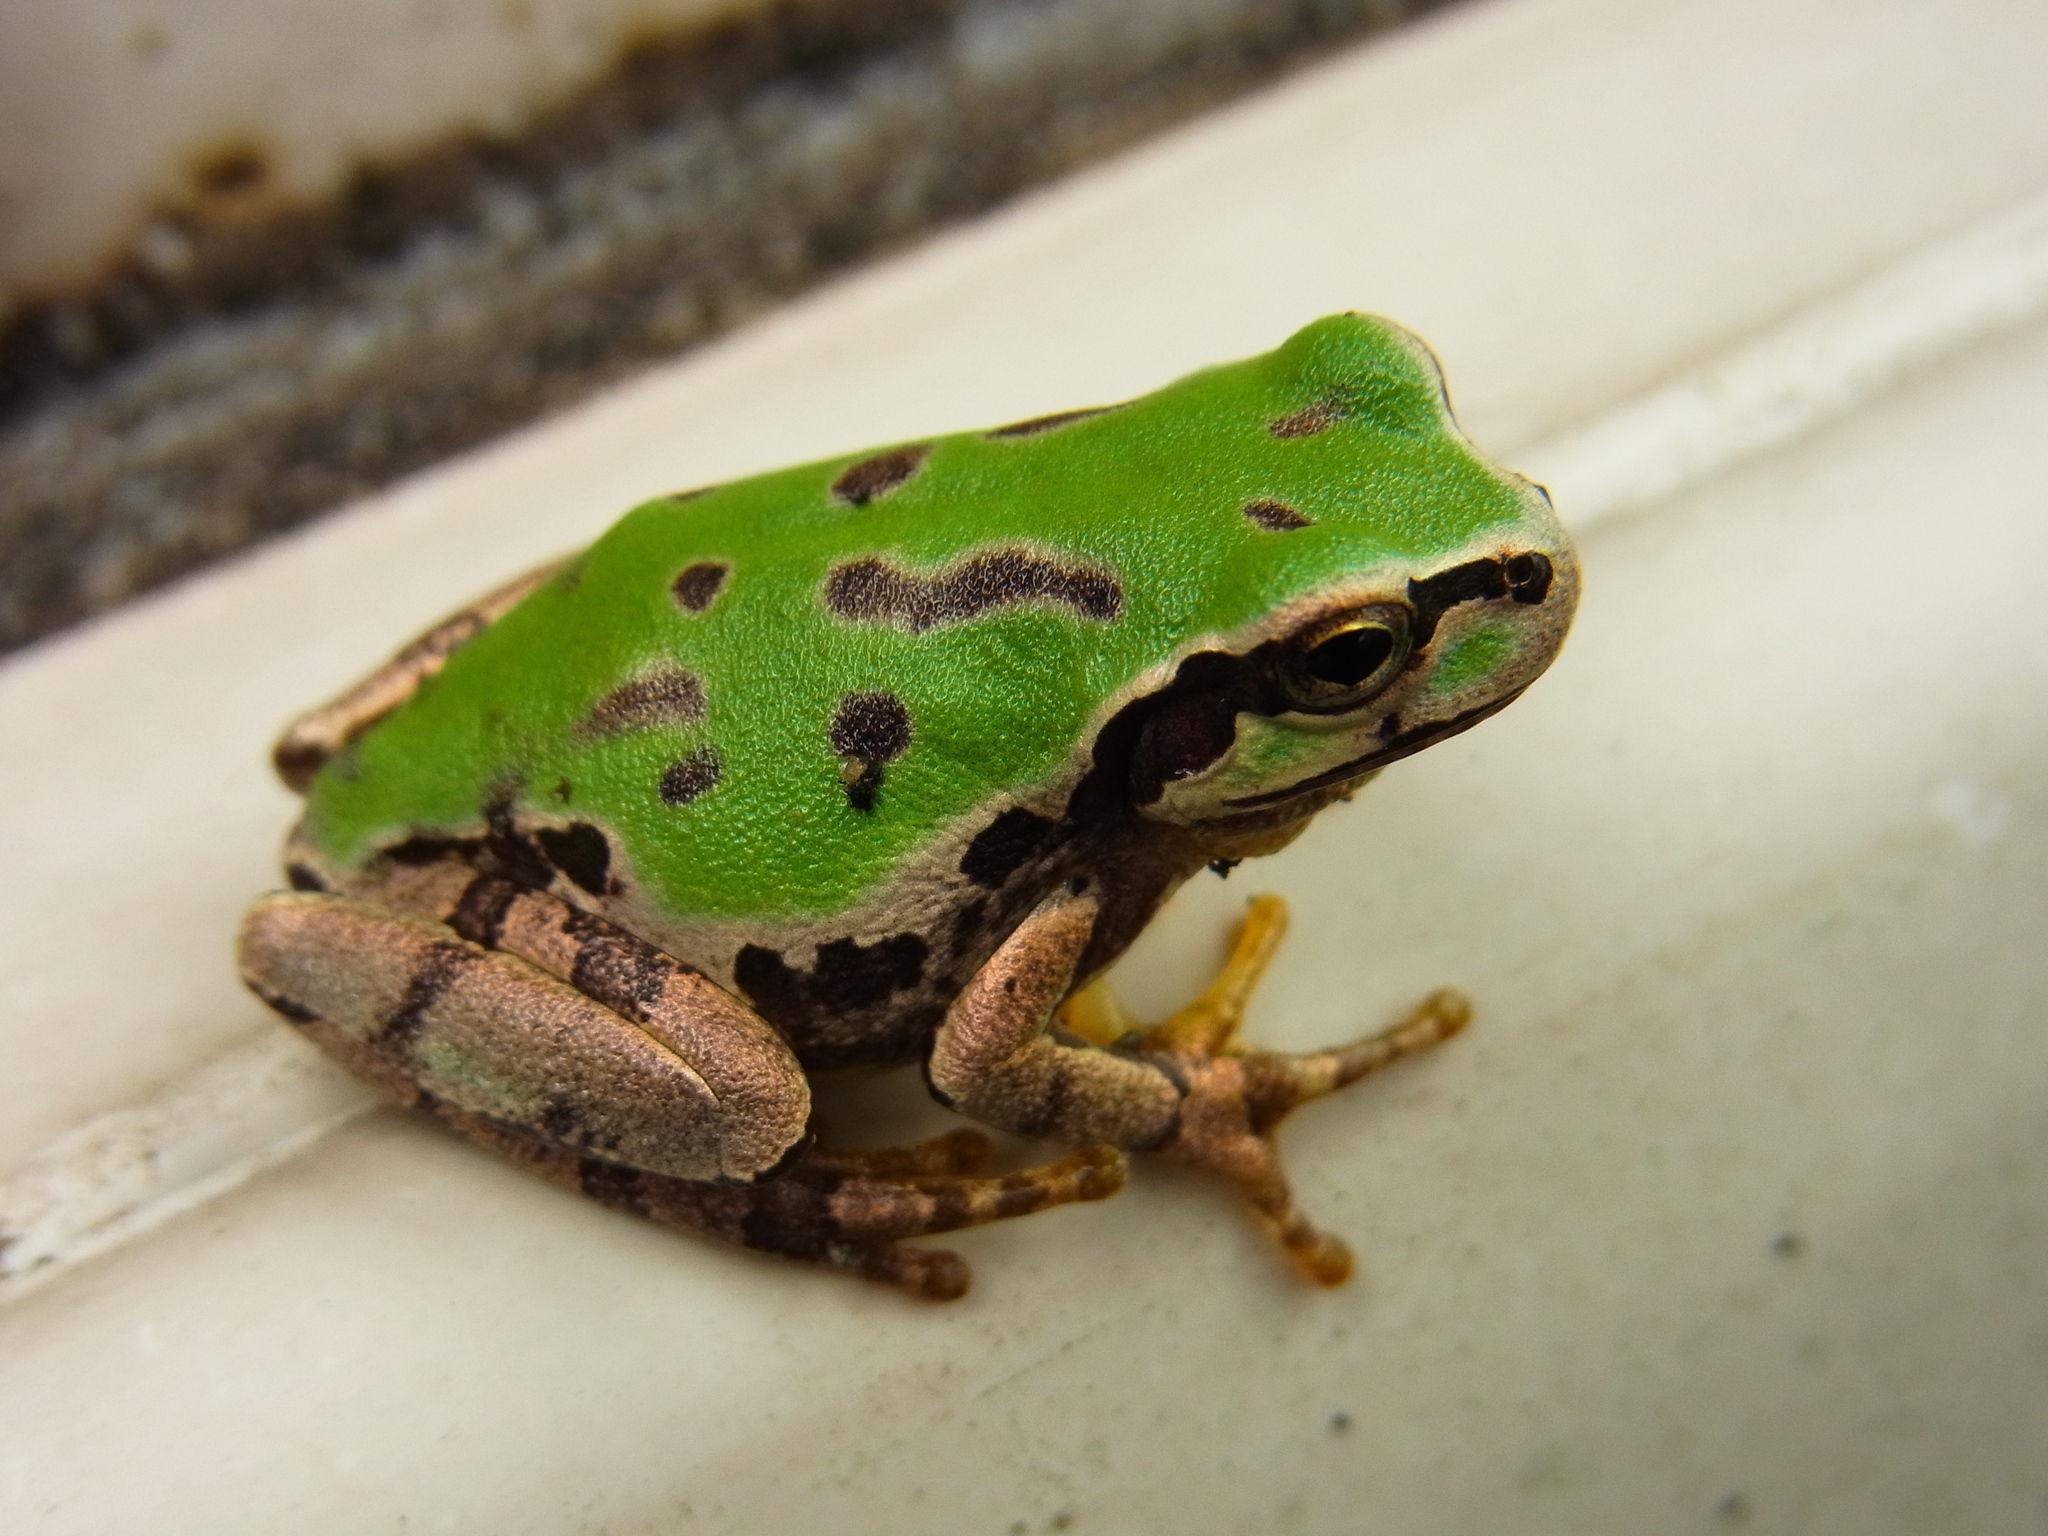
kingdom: Animalia
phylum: Chordata
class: Amphibia
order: Anura
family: Hylidae
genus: Dryophytes
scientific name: Dryophytes japonicus
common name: Japanese treefrog
